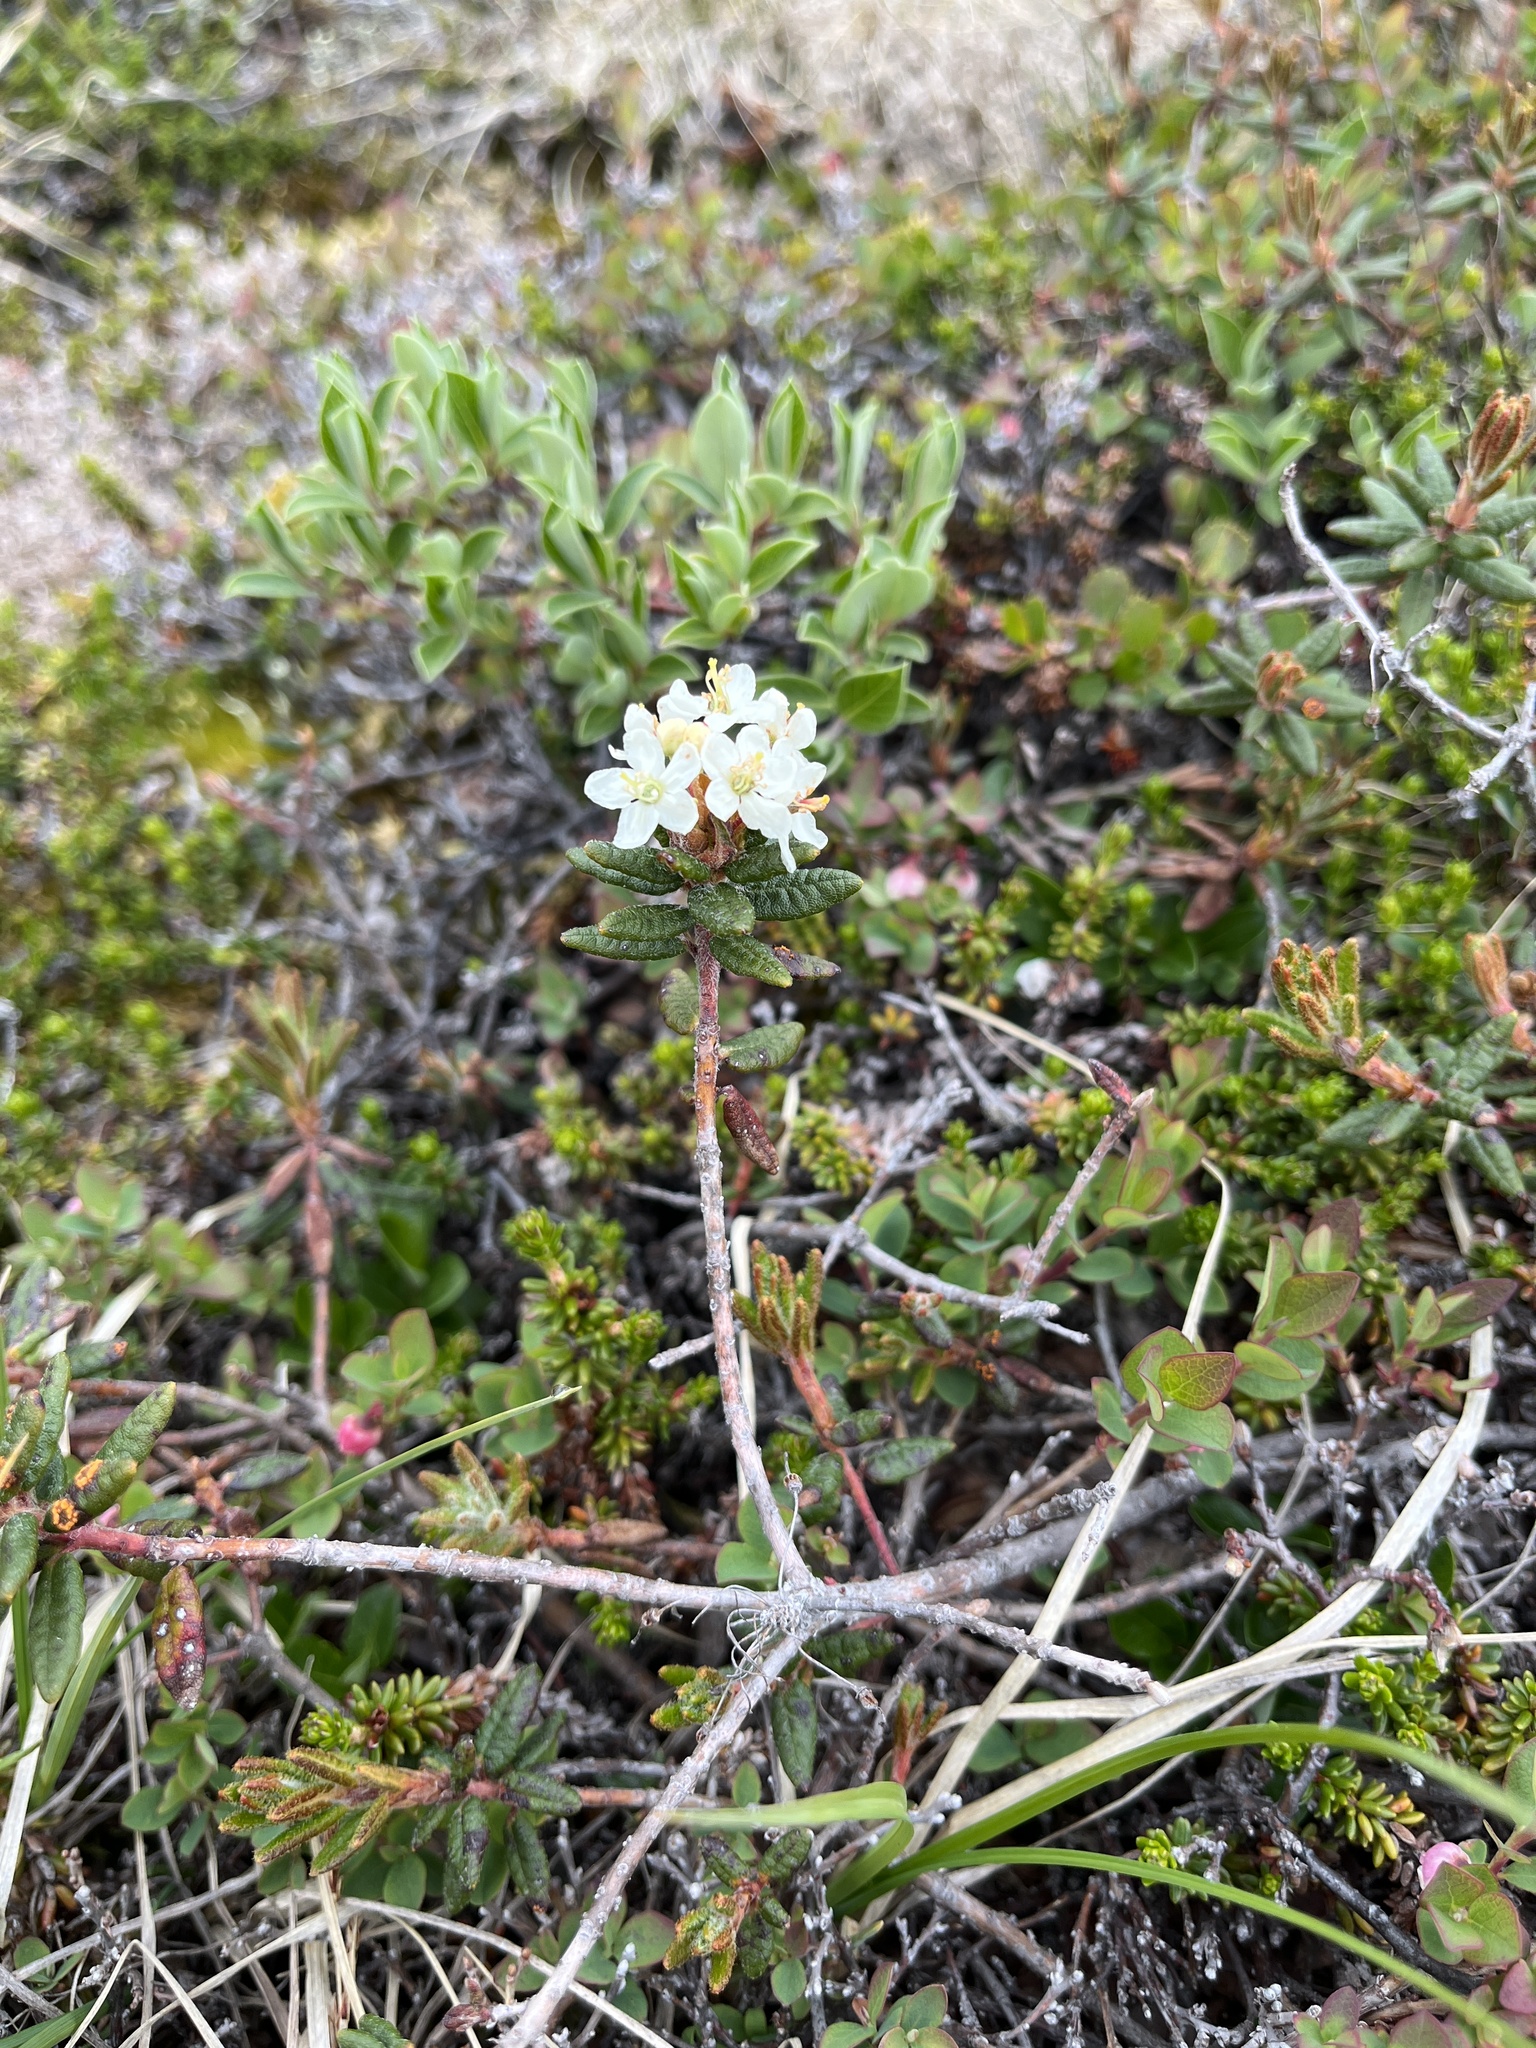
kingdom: Plantae
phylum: Tracheophyta
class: Magnoliopsida
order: Ericales
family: Ericaceae
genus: Rhododendron
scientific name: Rhododendron groenlandicum
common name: Bog labrador tea
